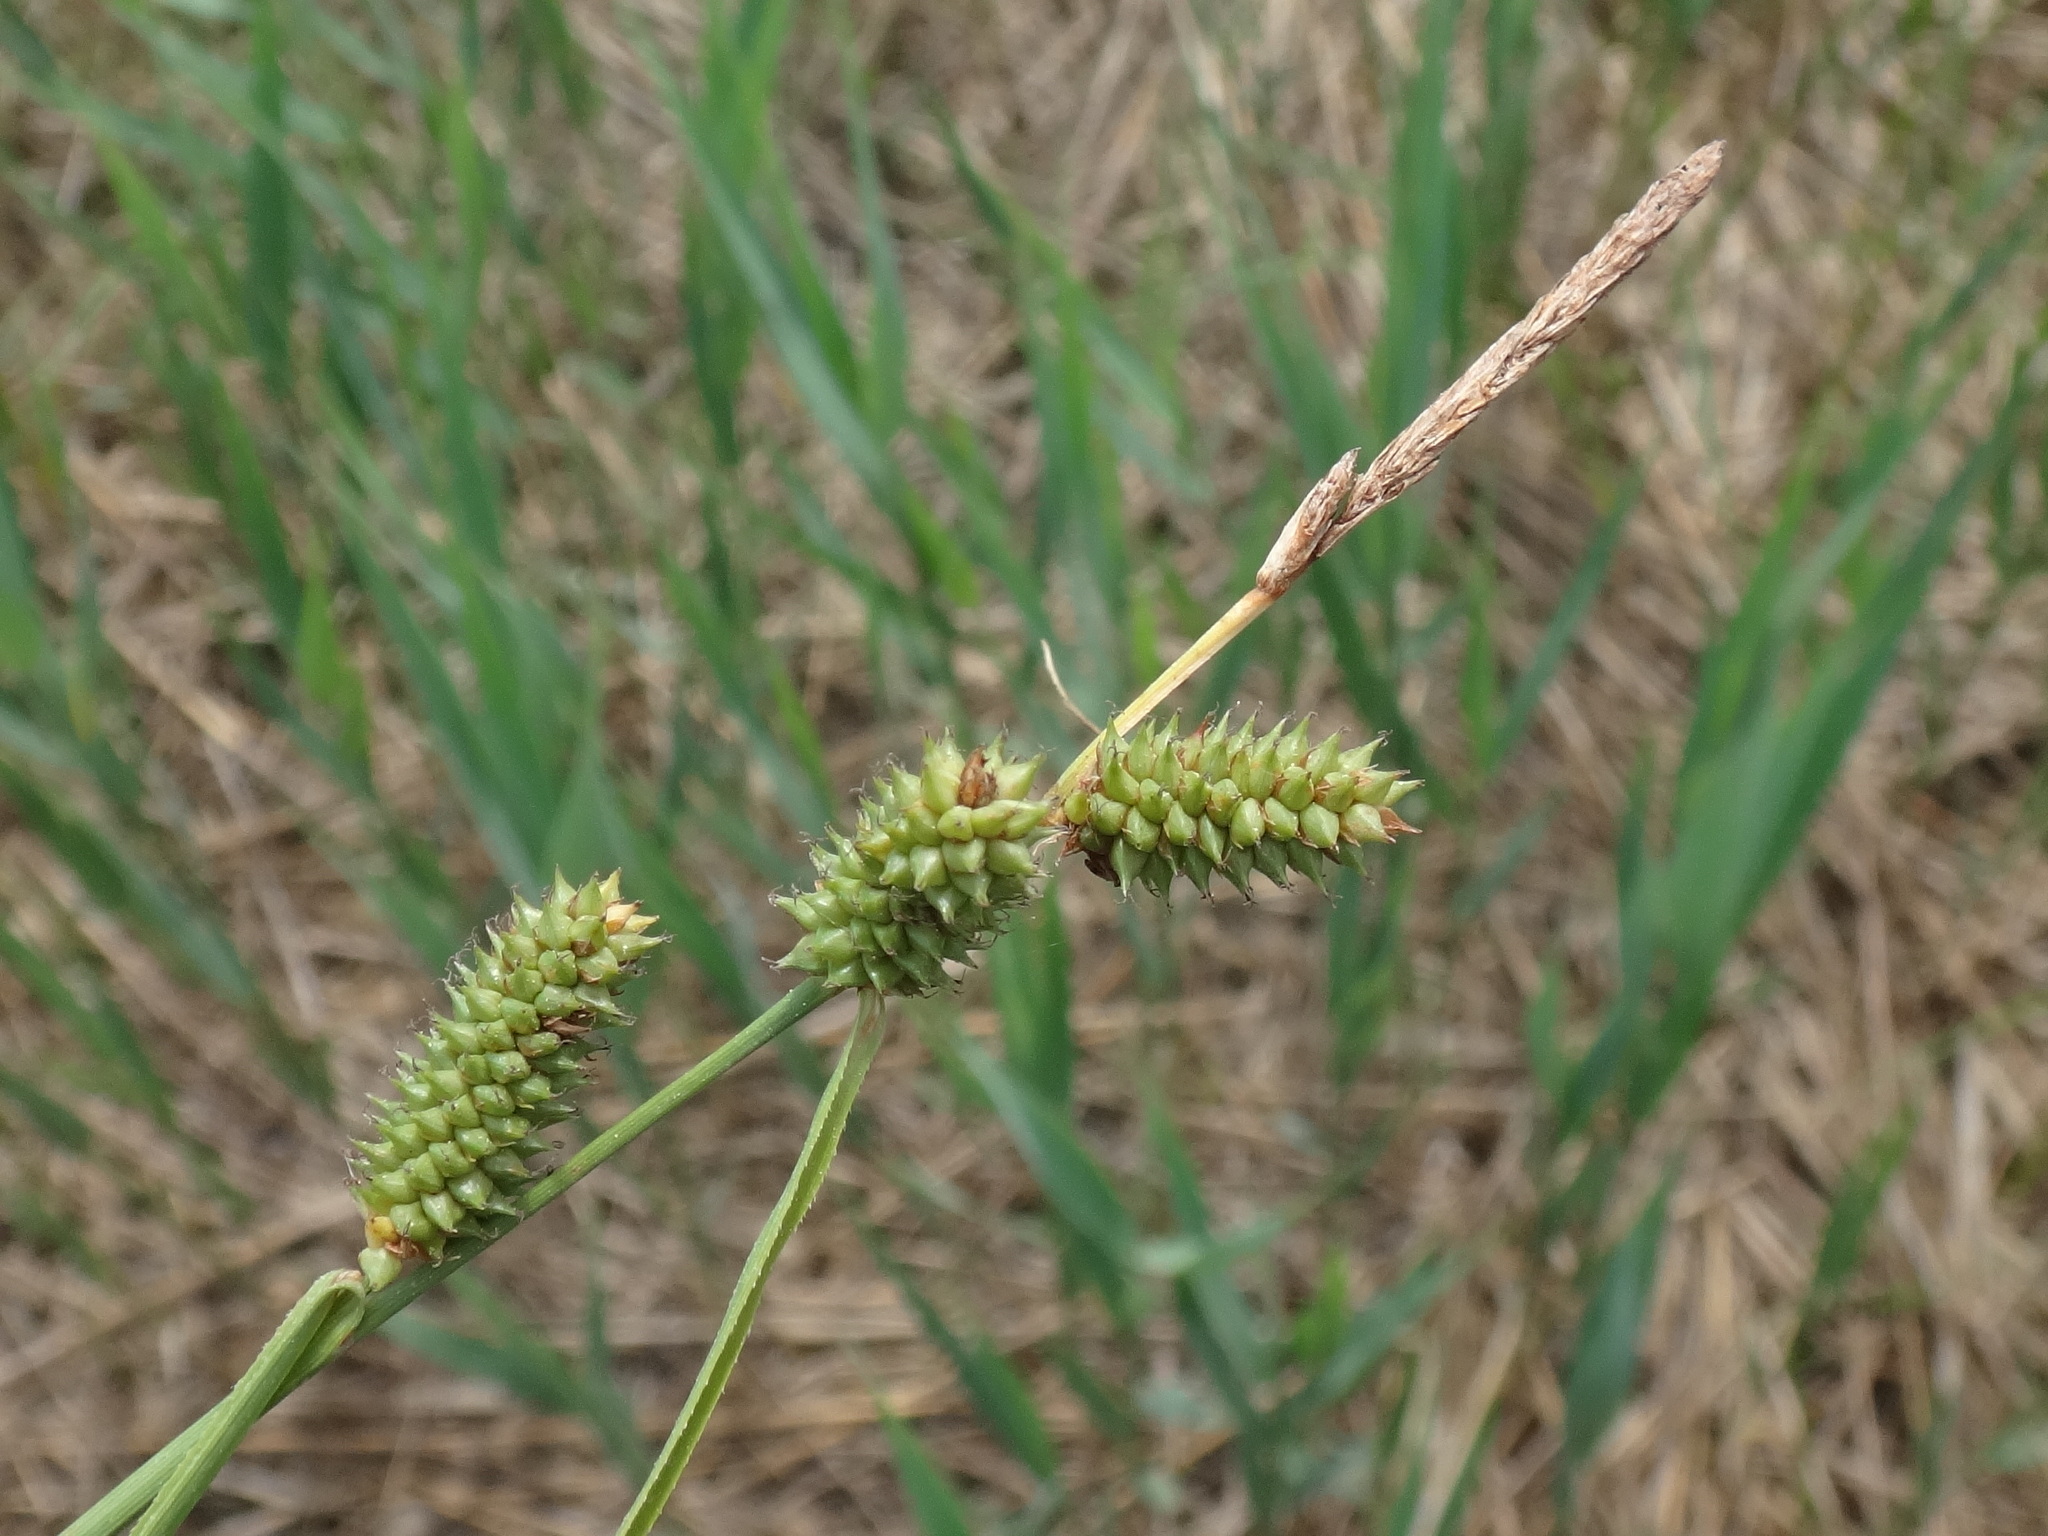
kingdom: Plantae
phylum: Tracheophyta
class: Liliopsida
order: Poales
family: Cyperaceae
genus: Carex
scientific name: Carex extensa
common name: Long-bracted sedge
